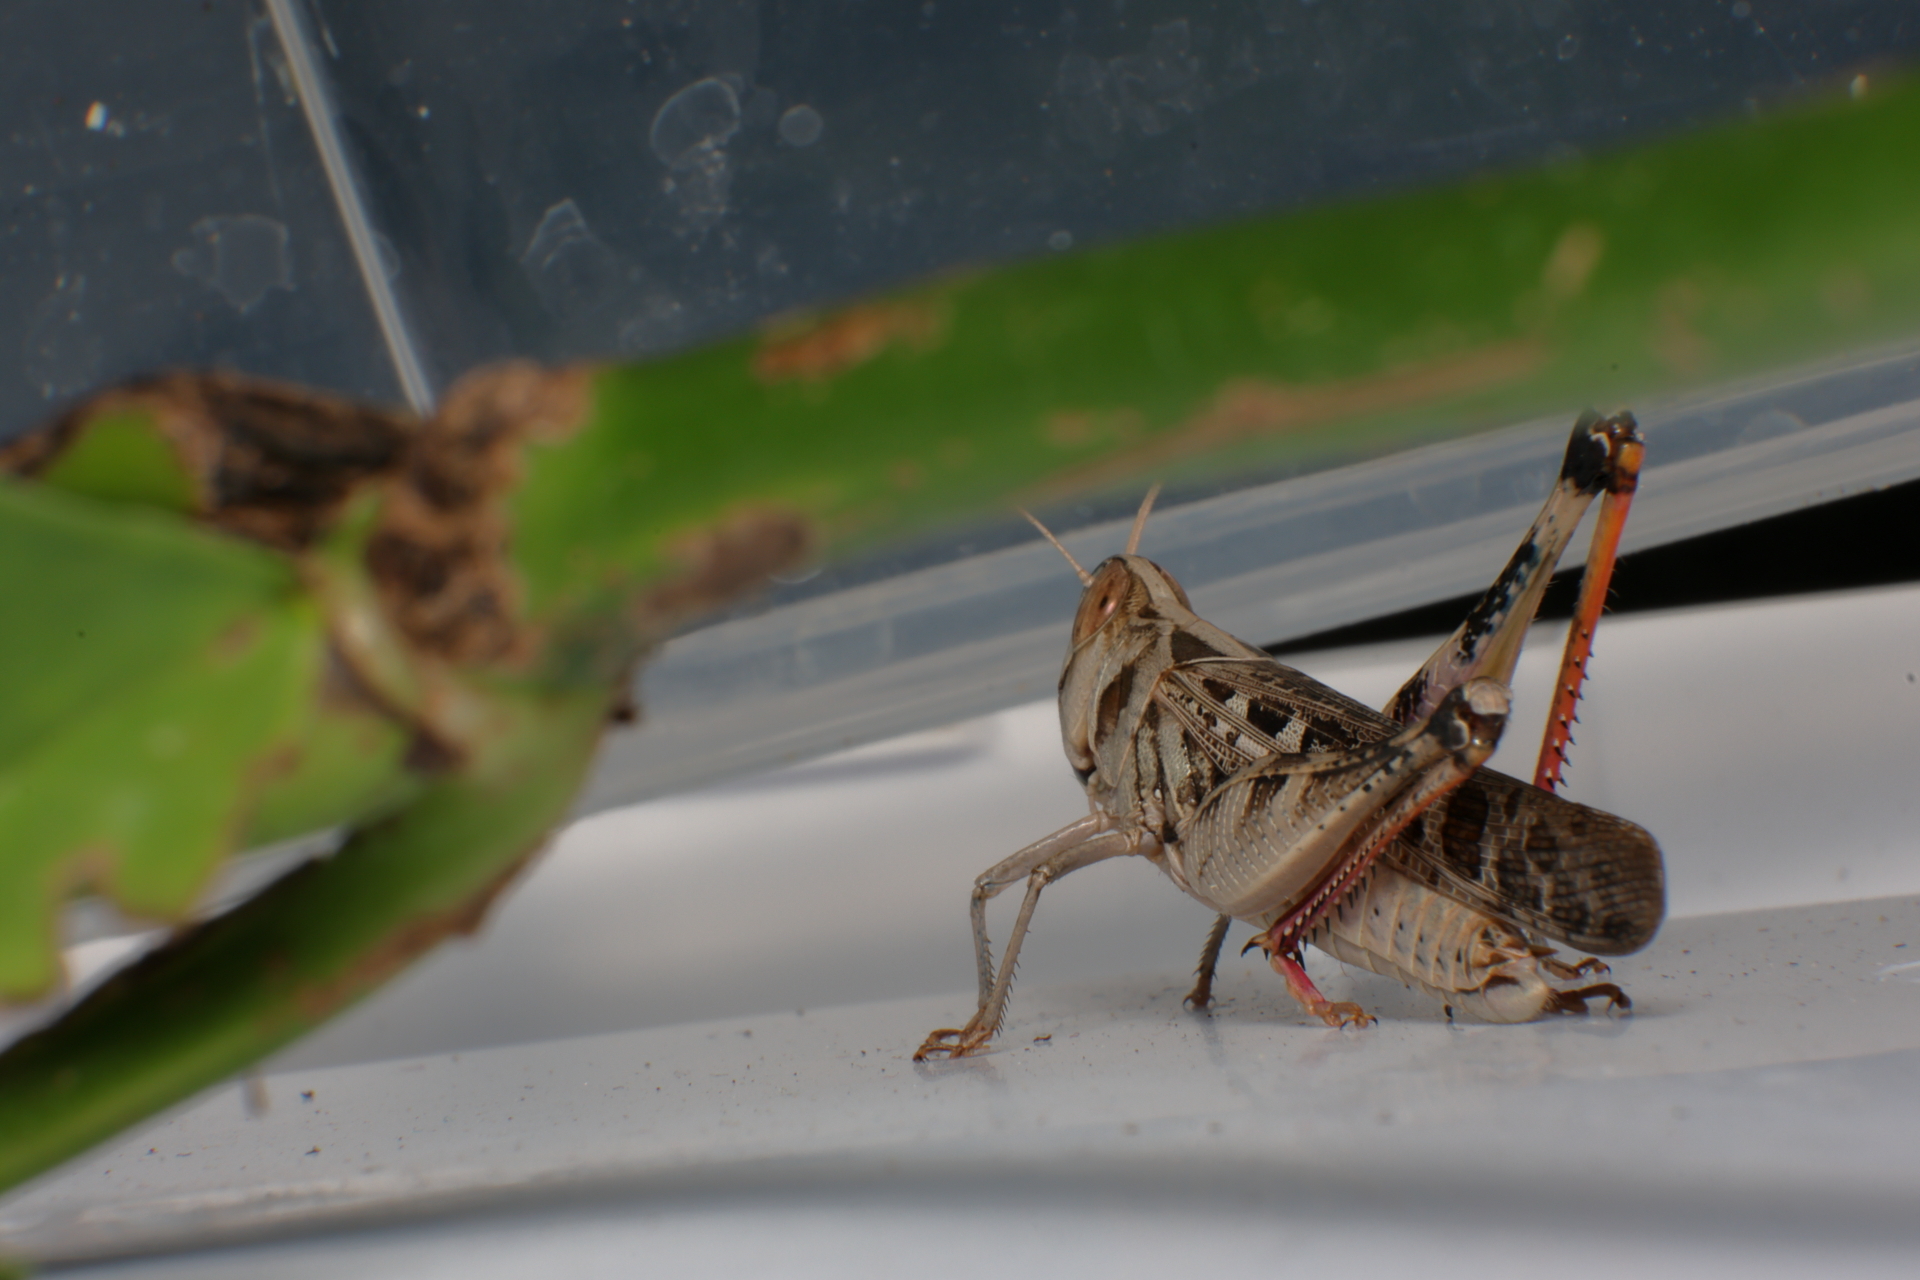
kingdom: Animalia
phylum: Arthropoda
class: Insecta
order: Orthoptera
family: Acrididae
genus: Rhammatocerus
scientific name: Rhammatocerus viatorius
